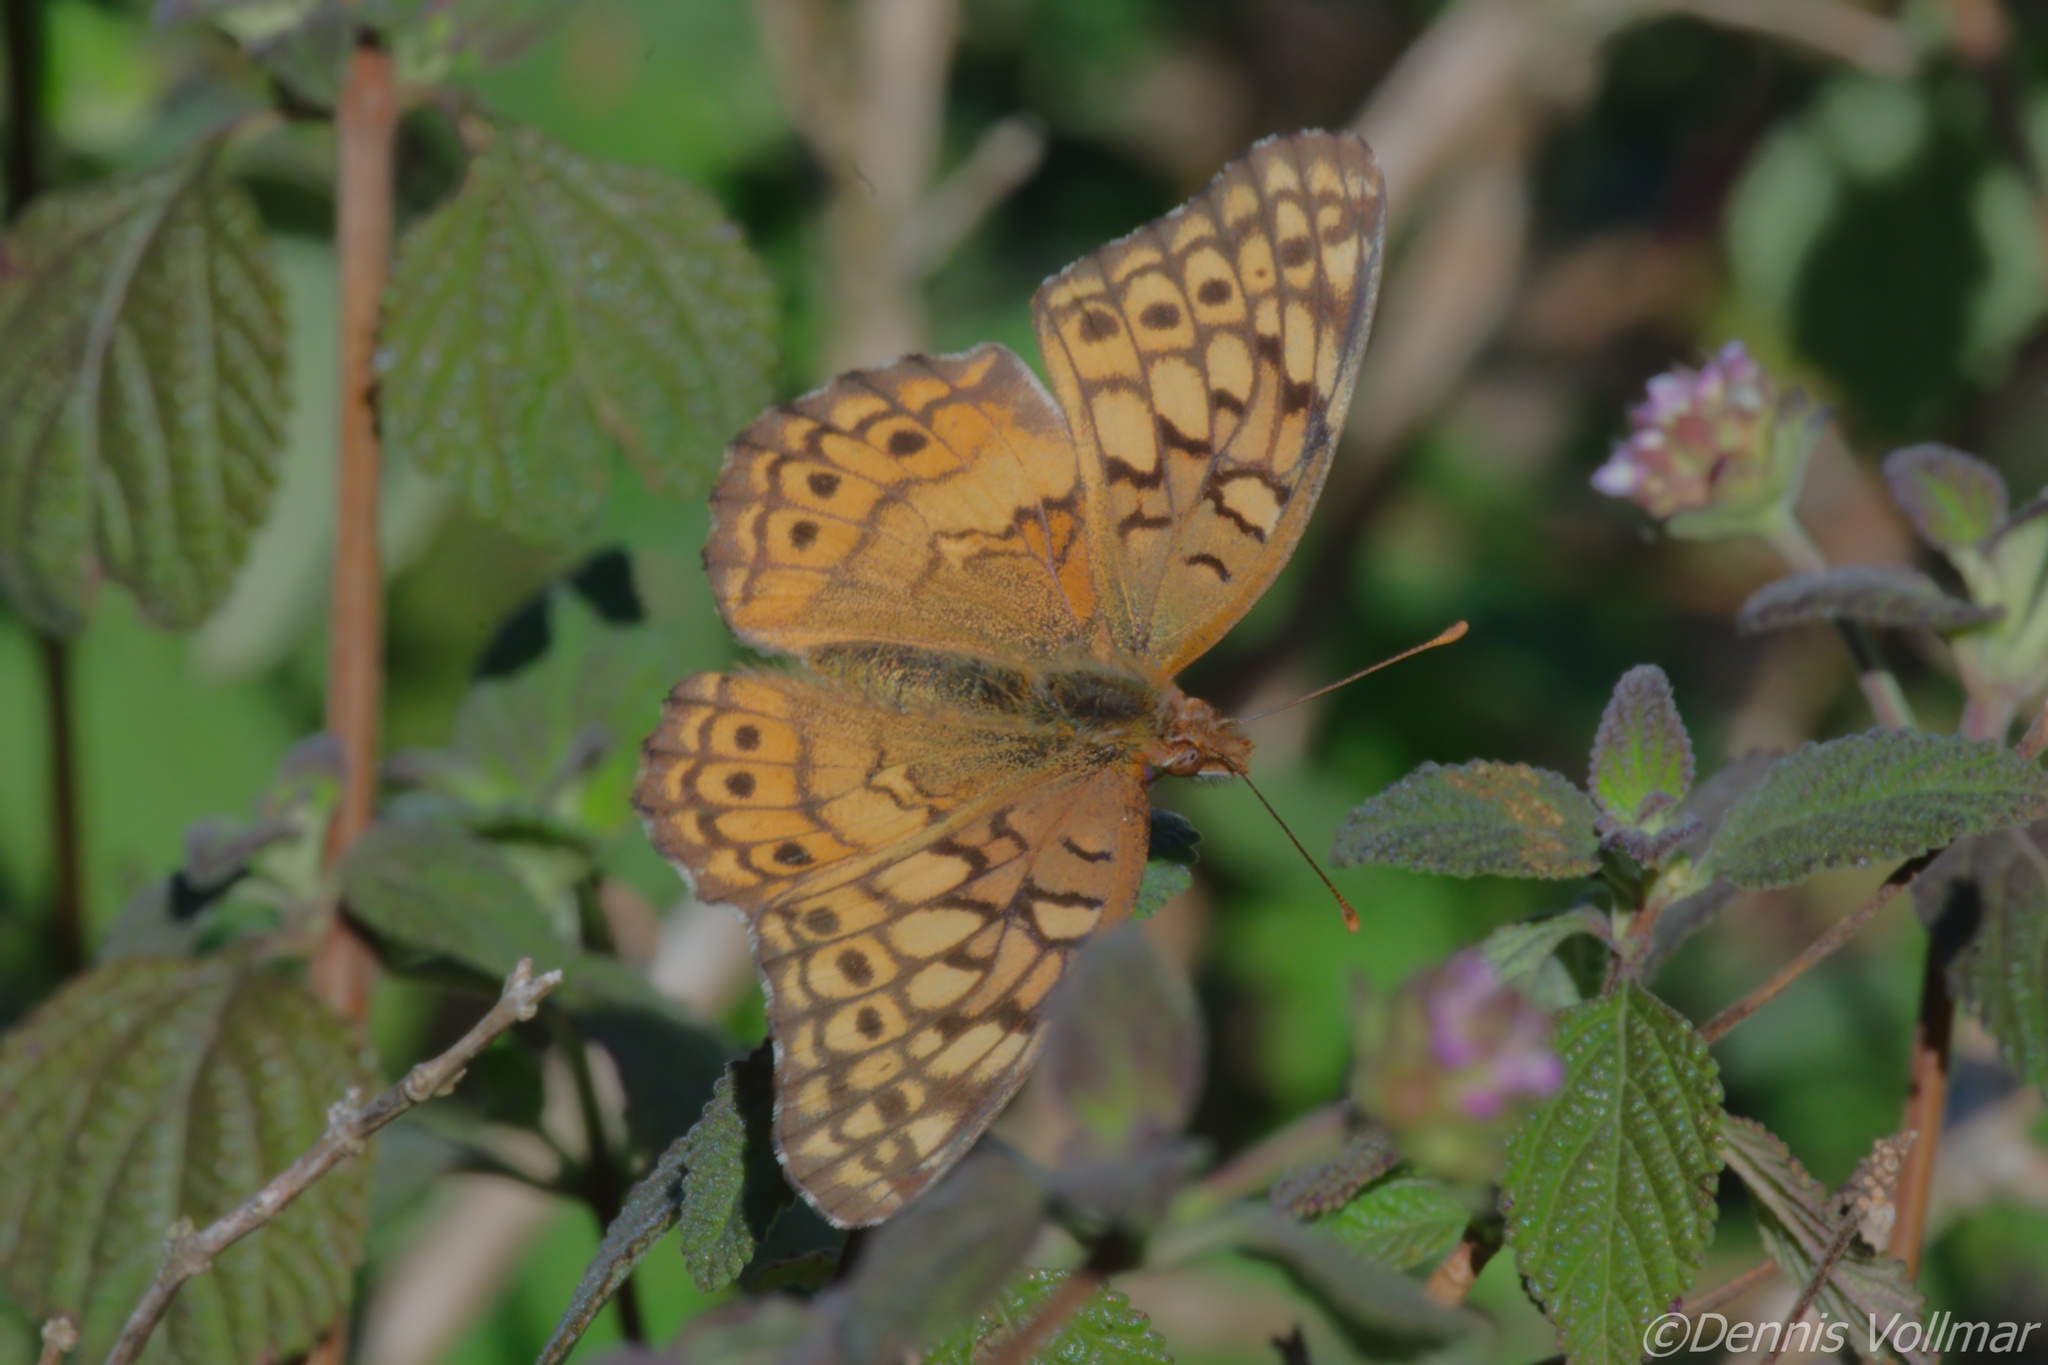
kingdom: Animalia
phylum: Arthropoda
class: Insecta
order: Lepidoptera
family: Nymphalidae
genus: Euptoieta
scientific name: Euptoieta claudia
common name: Variegated fritillary
